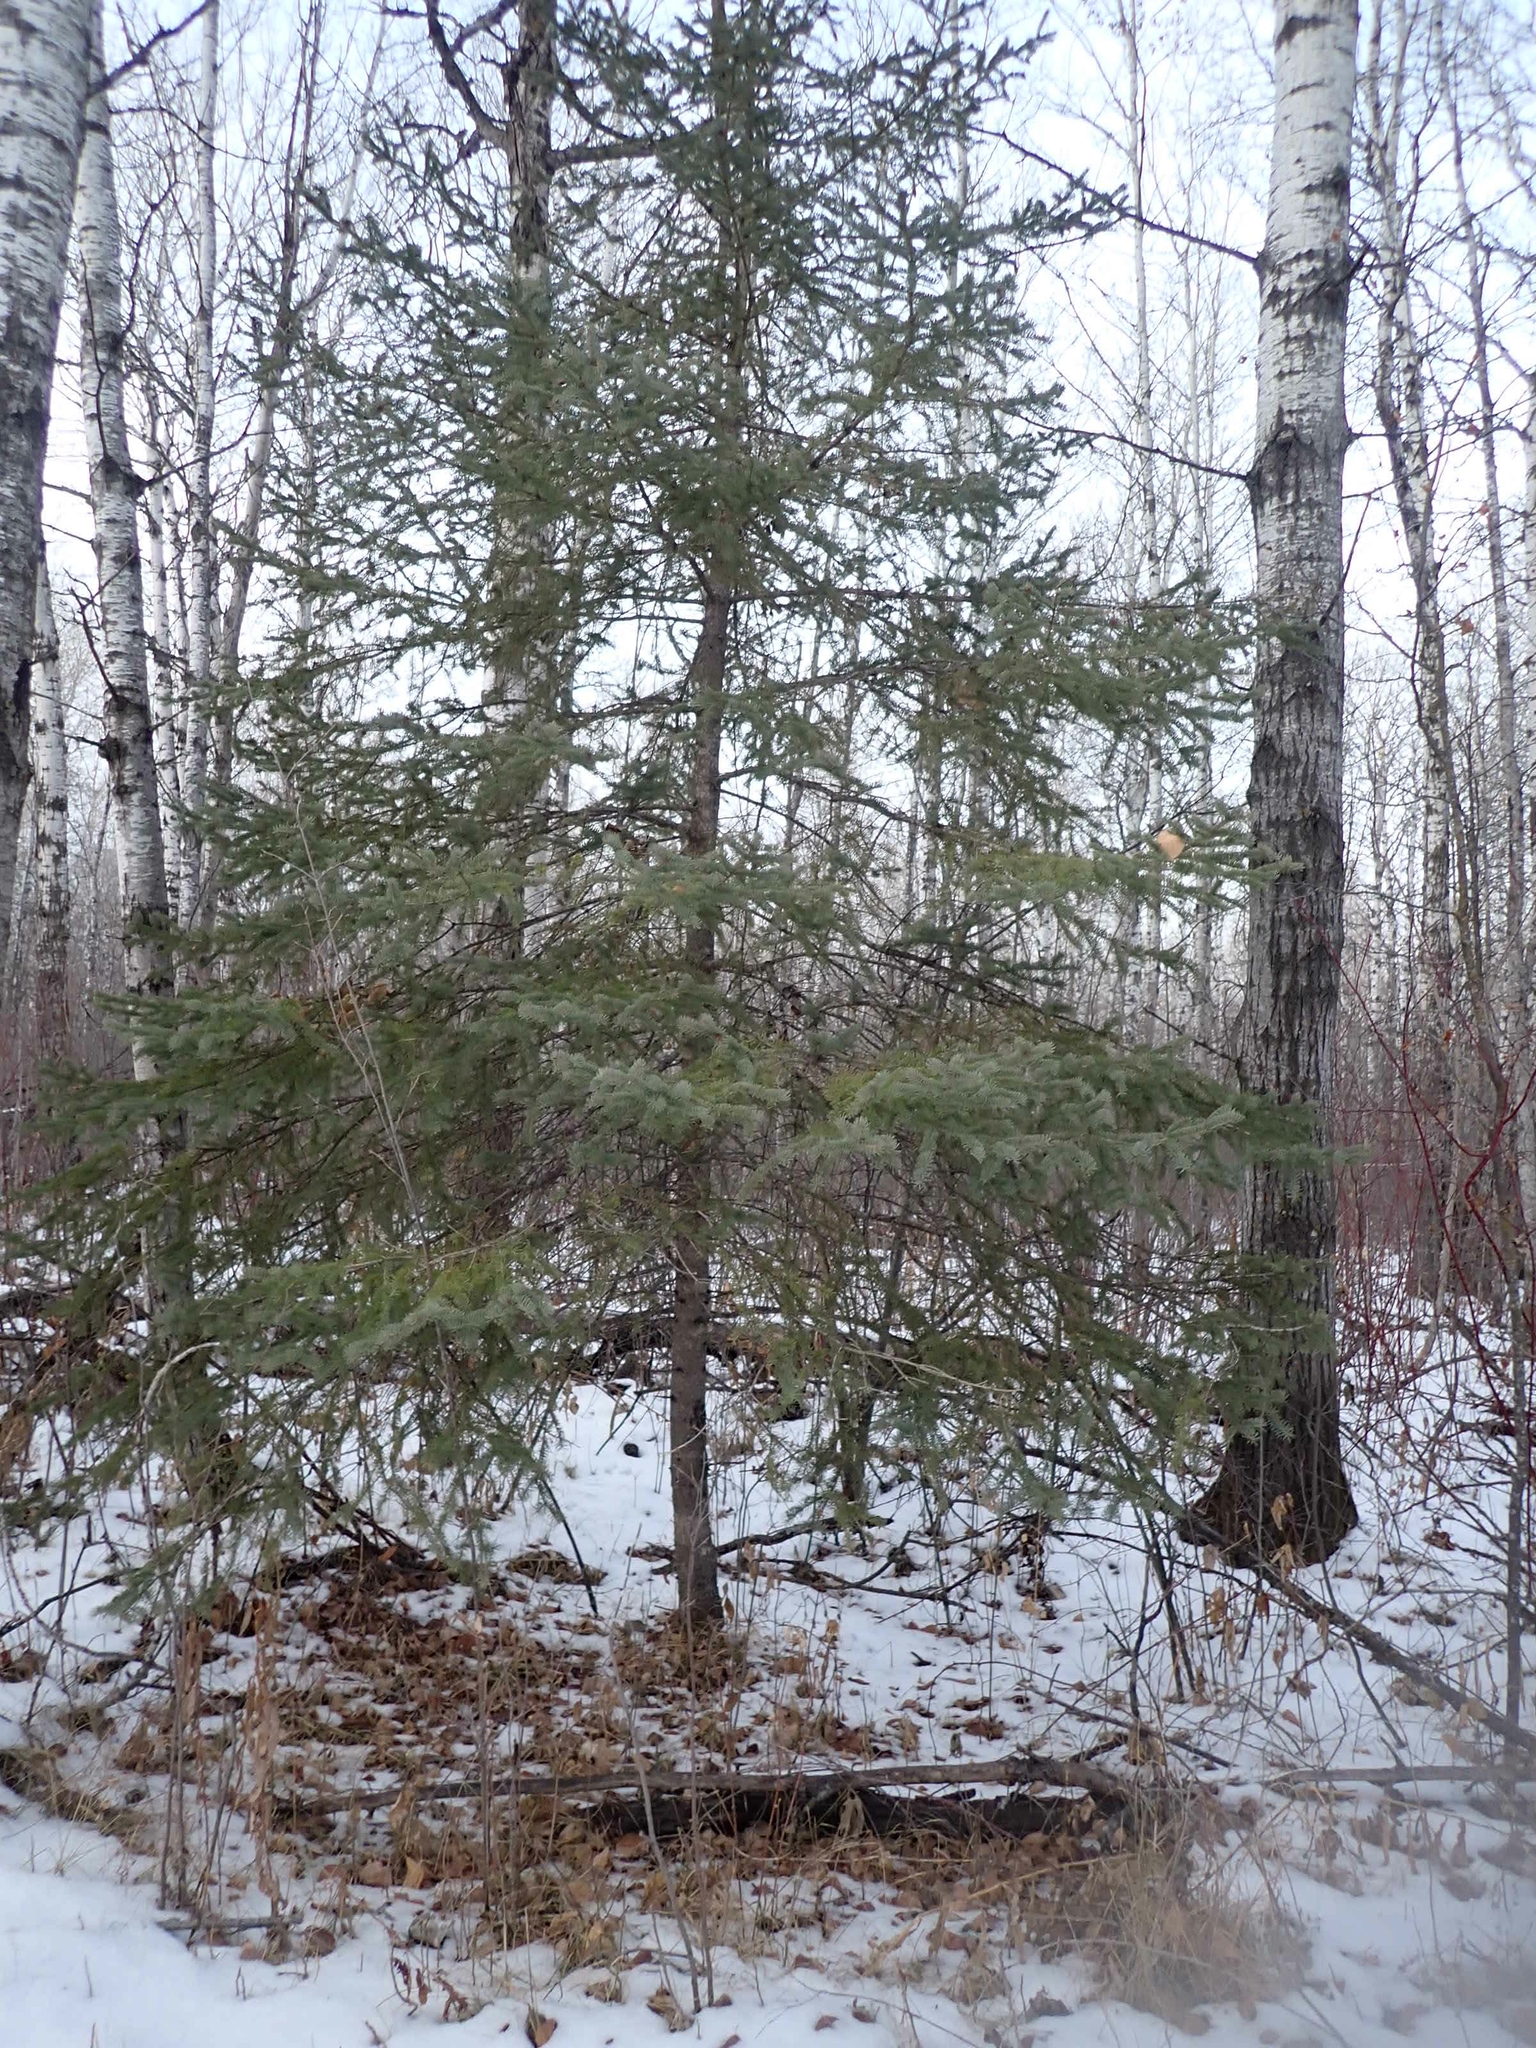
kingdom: Plantae
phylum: Tracheophyta
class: Pinopsida
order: Pinales
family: Pinaceae
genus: Picea
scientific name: Picea glauca
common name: White spruce
